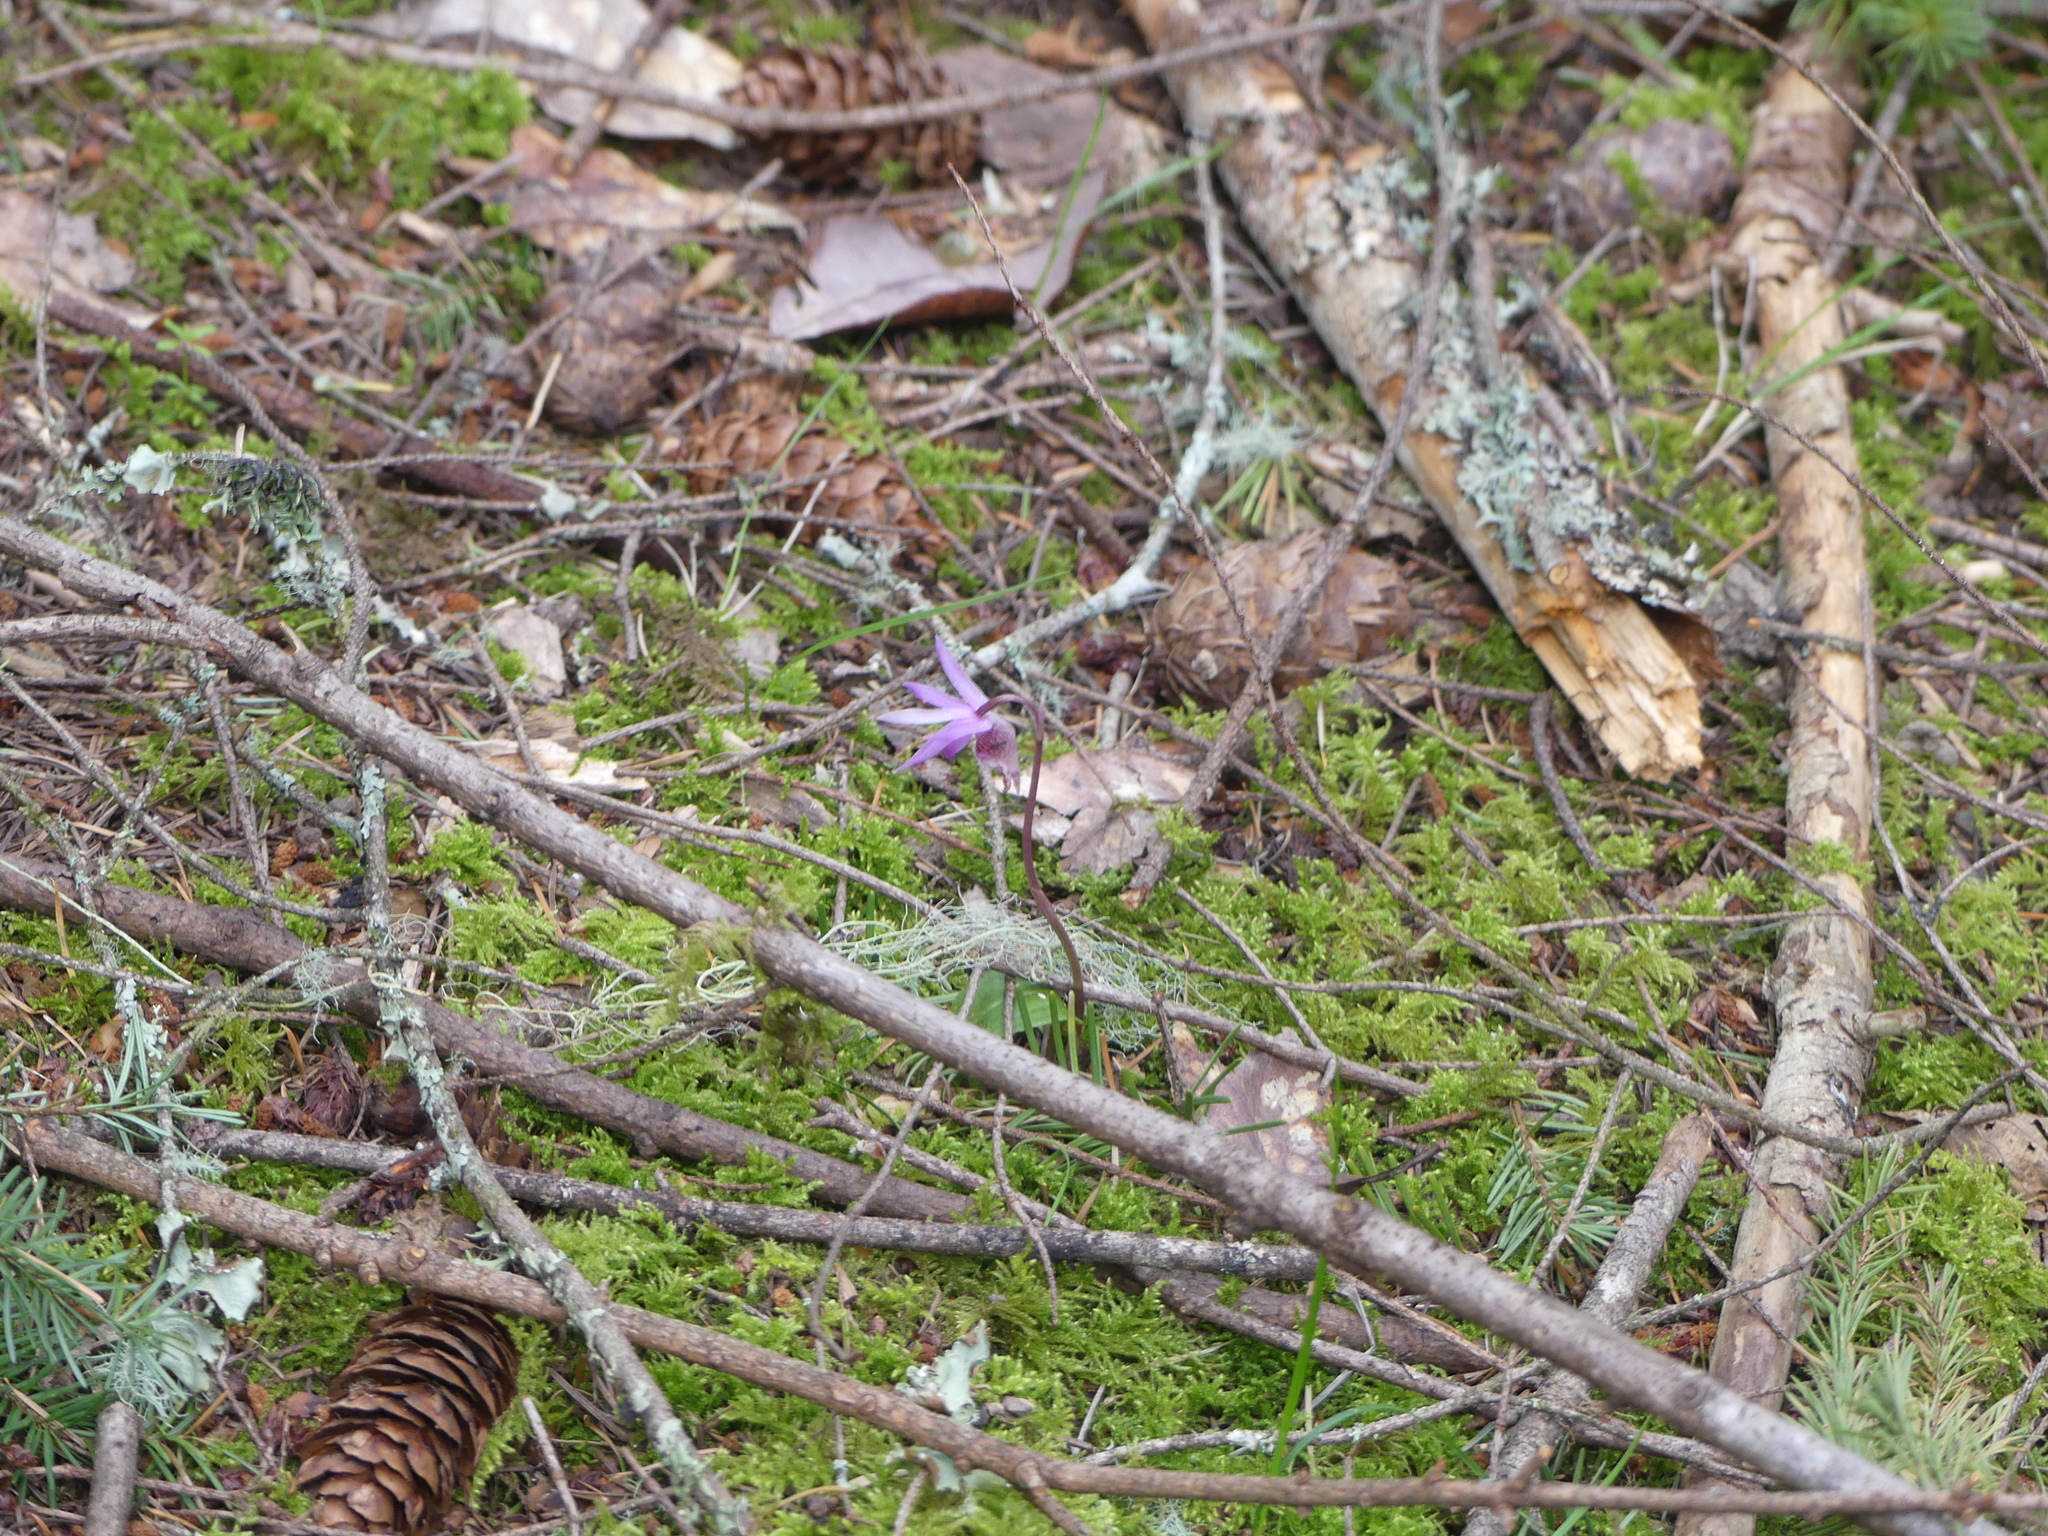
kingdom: Plantae
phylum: Tracheophyta
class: Liliopsida
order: Asparagales
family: Orchidaceae
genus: Calypso
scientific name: Calypso bulbosa
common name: Calypso
